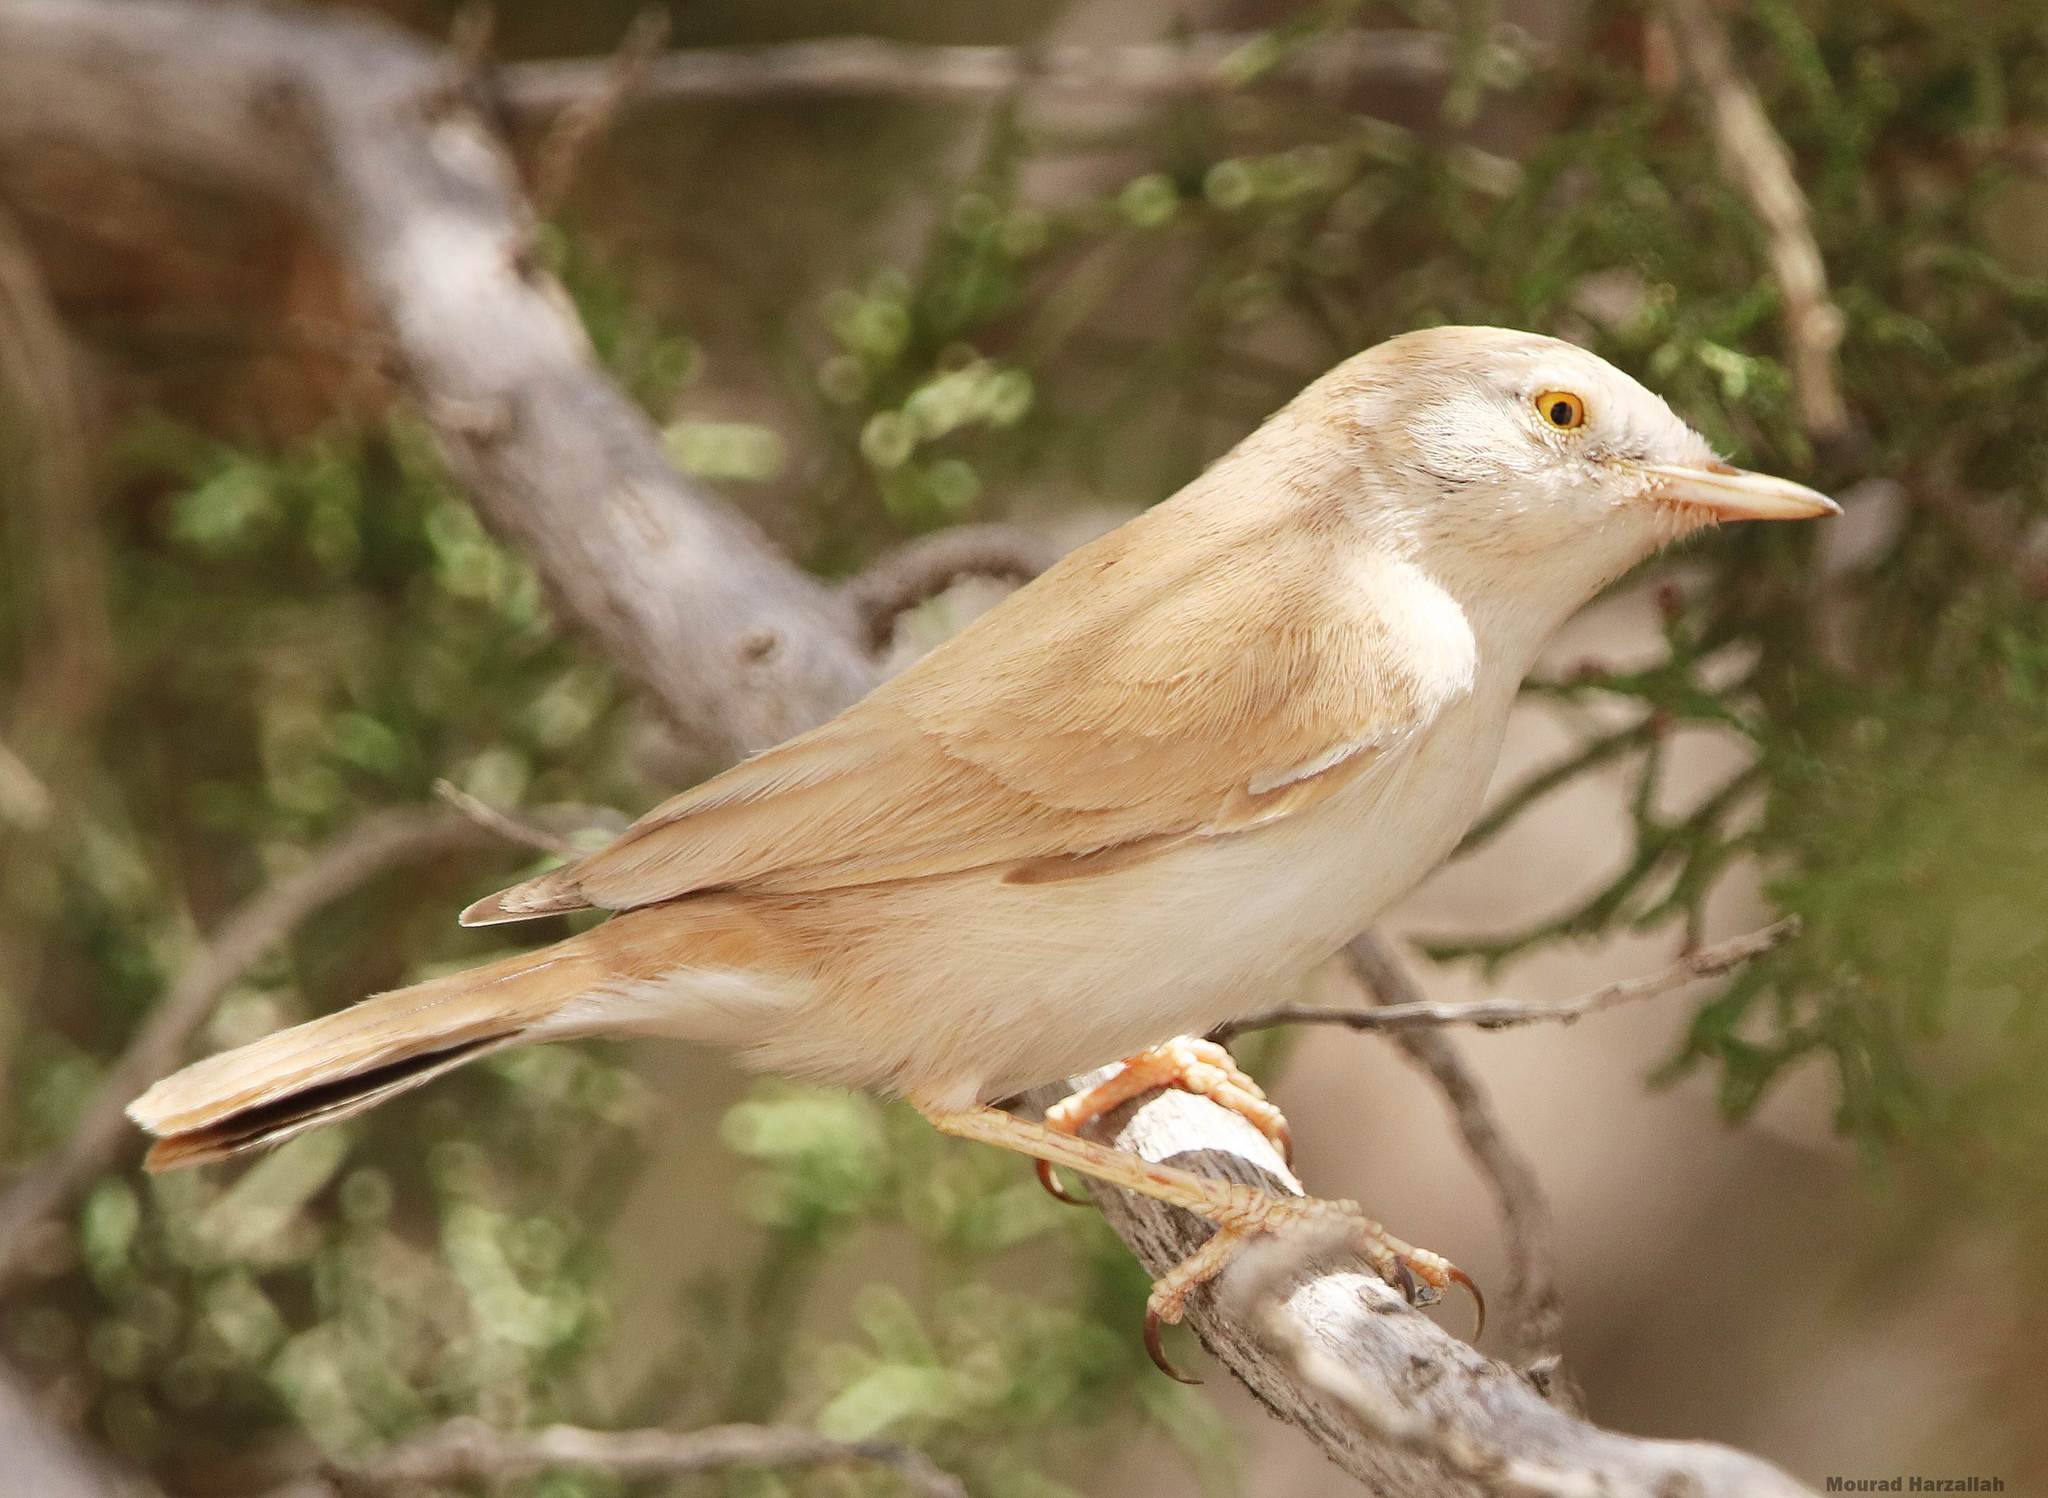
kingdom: Animalia
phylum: Chordata
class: Aves
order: Passeriformes
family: Sylviidae
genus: Sylvia
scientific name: Sylvia deserti
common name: African desert warbler
